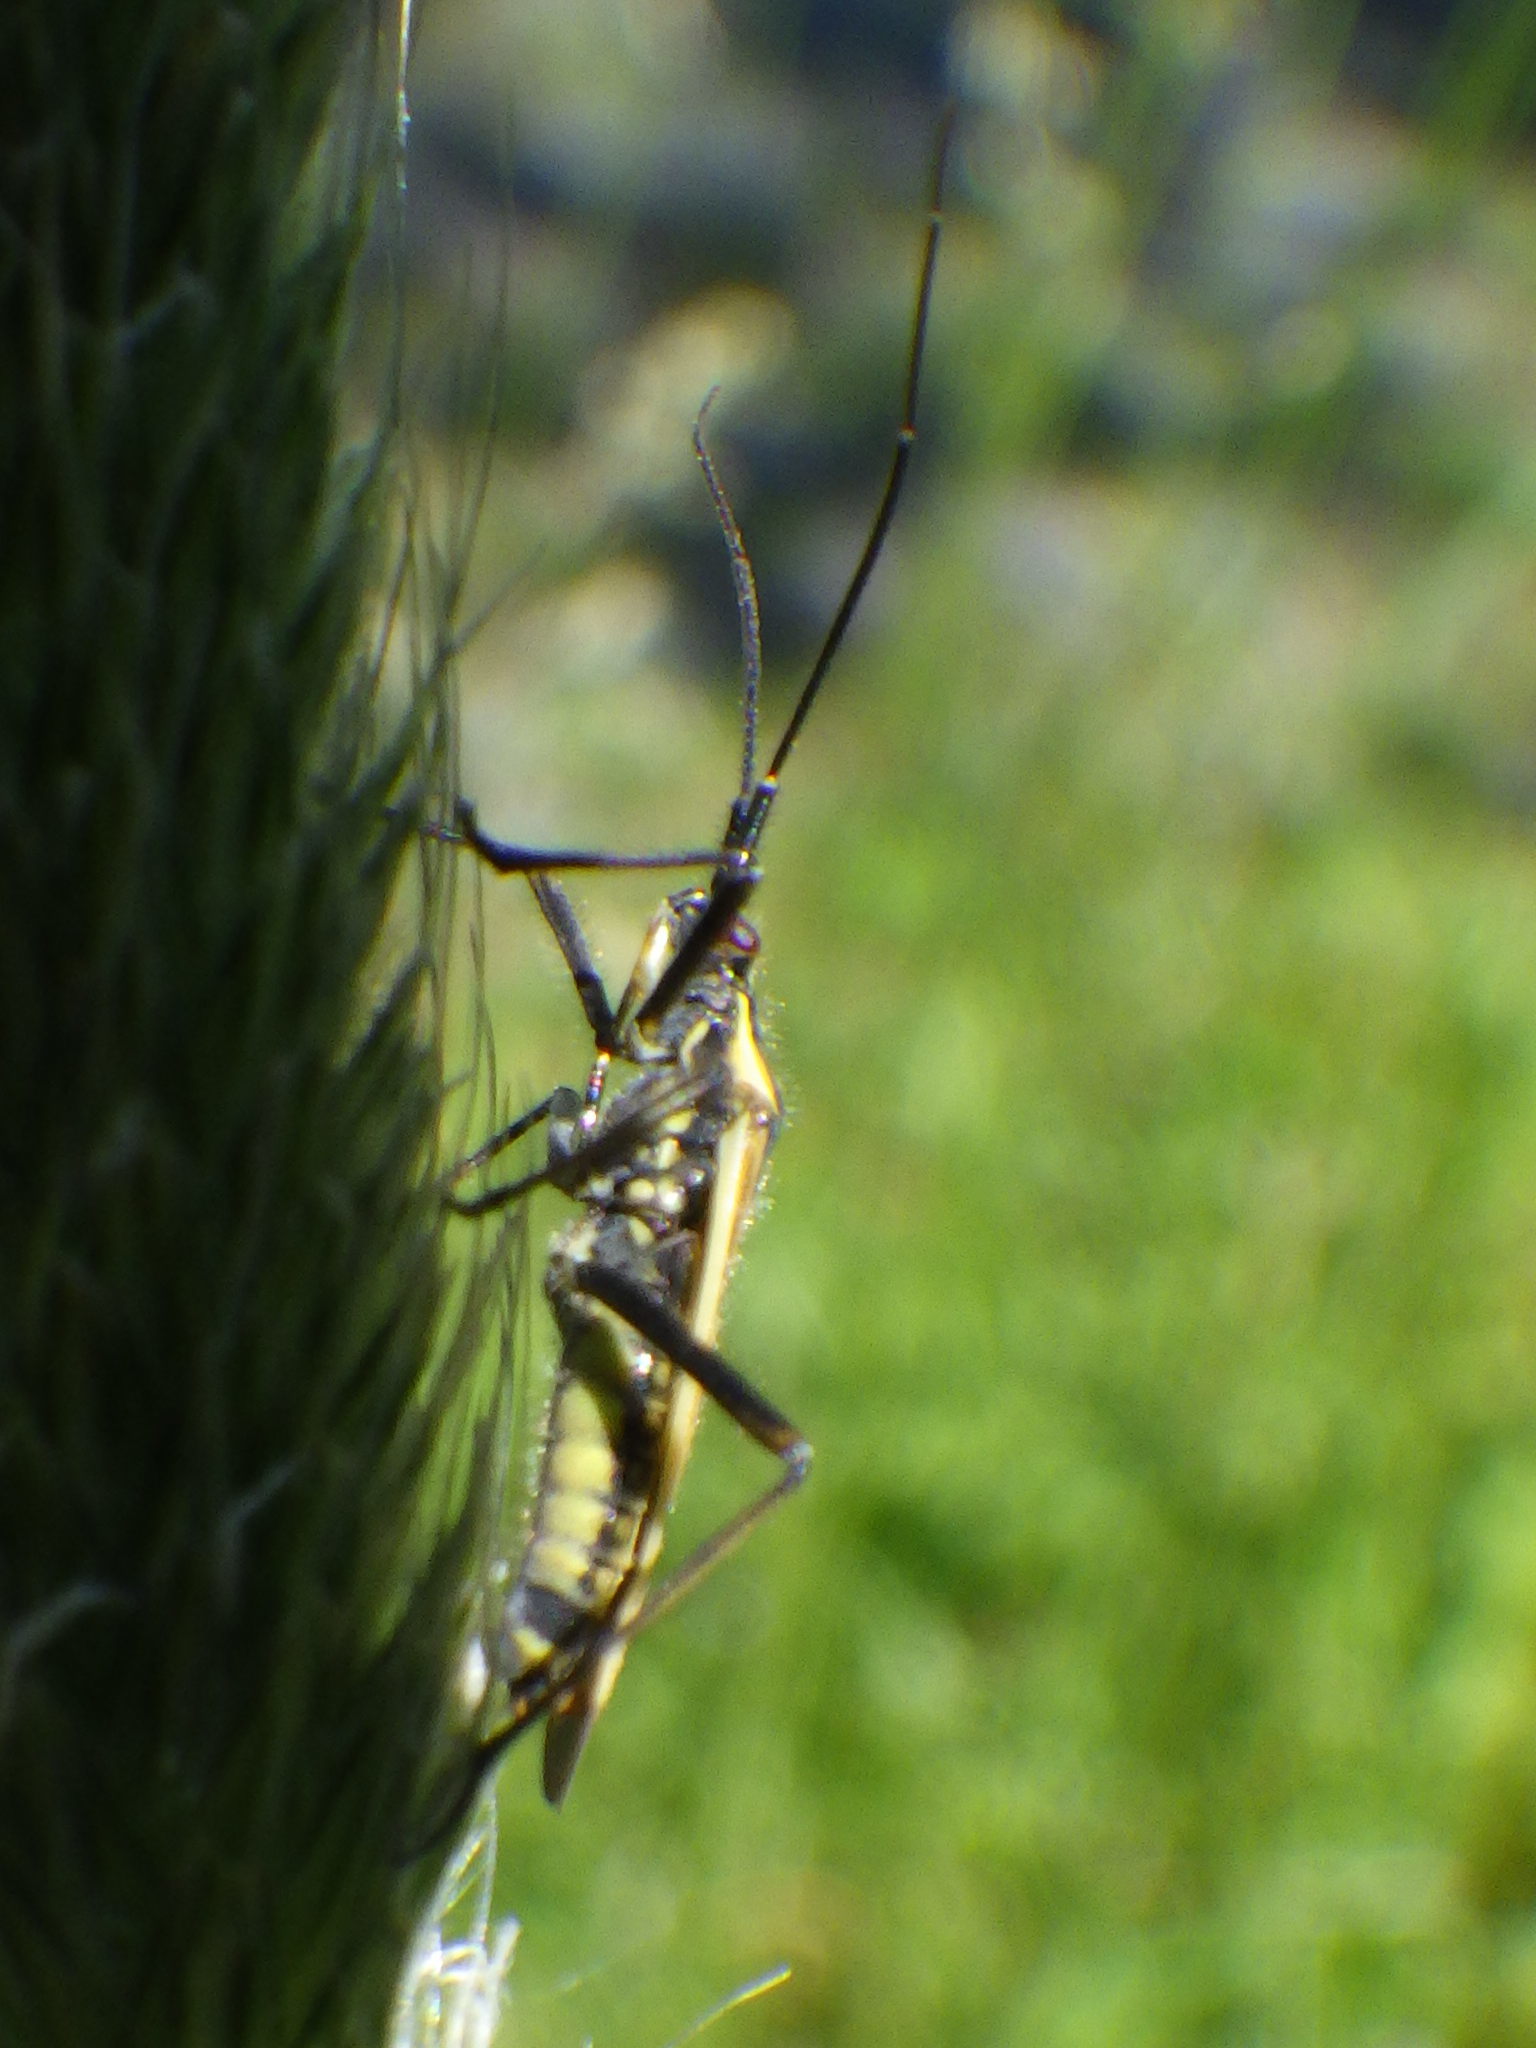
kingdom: Animalia
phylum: Arthropoda
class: Insecta
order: Hemiptera
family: Miridae
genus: Leptopterna
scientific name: Leptopterna dolabrata
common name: Meadow plant bug
